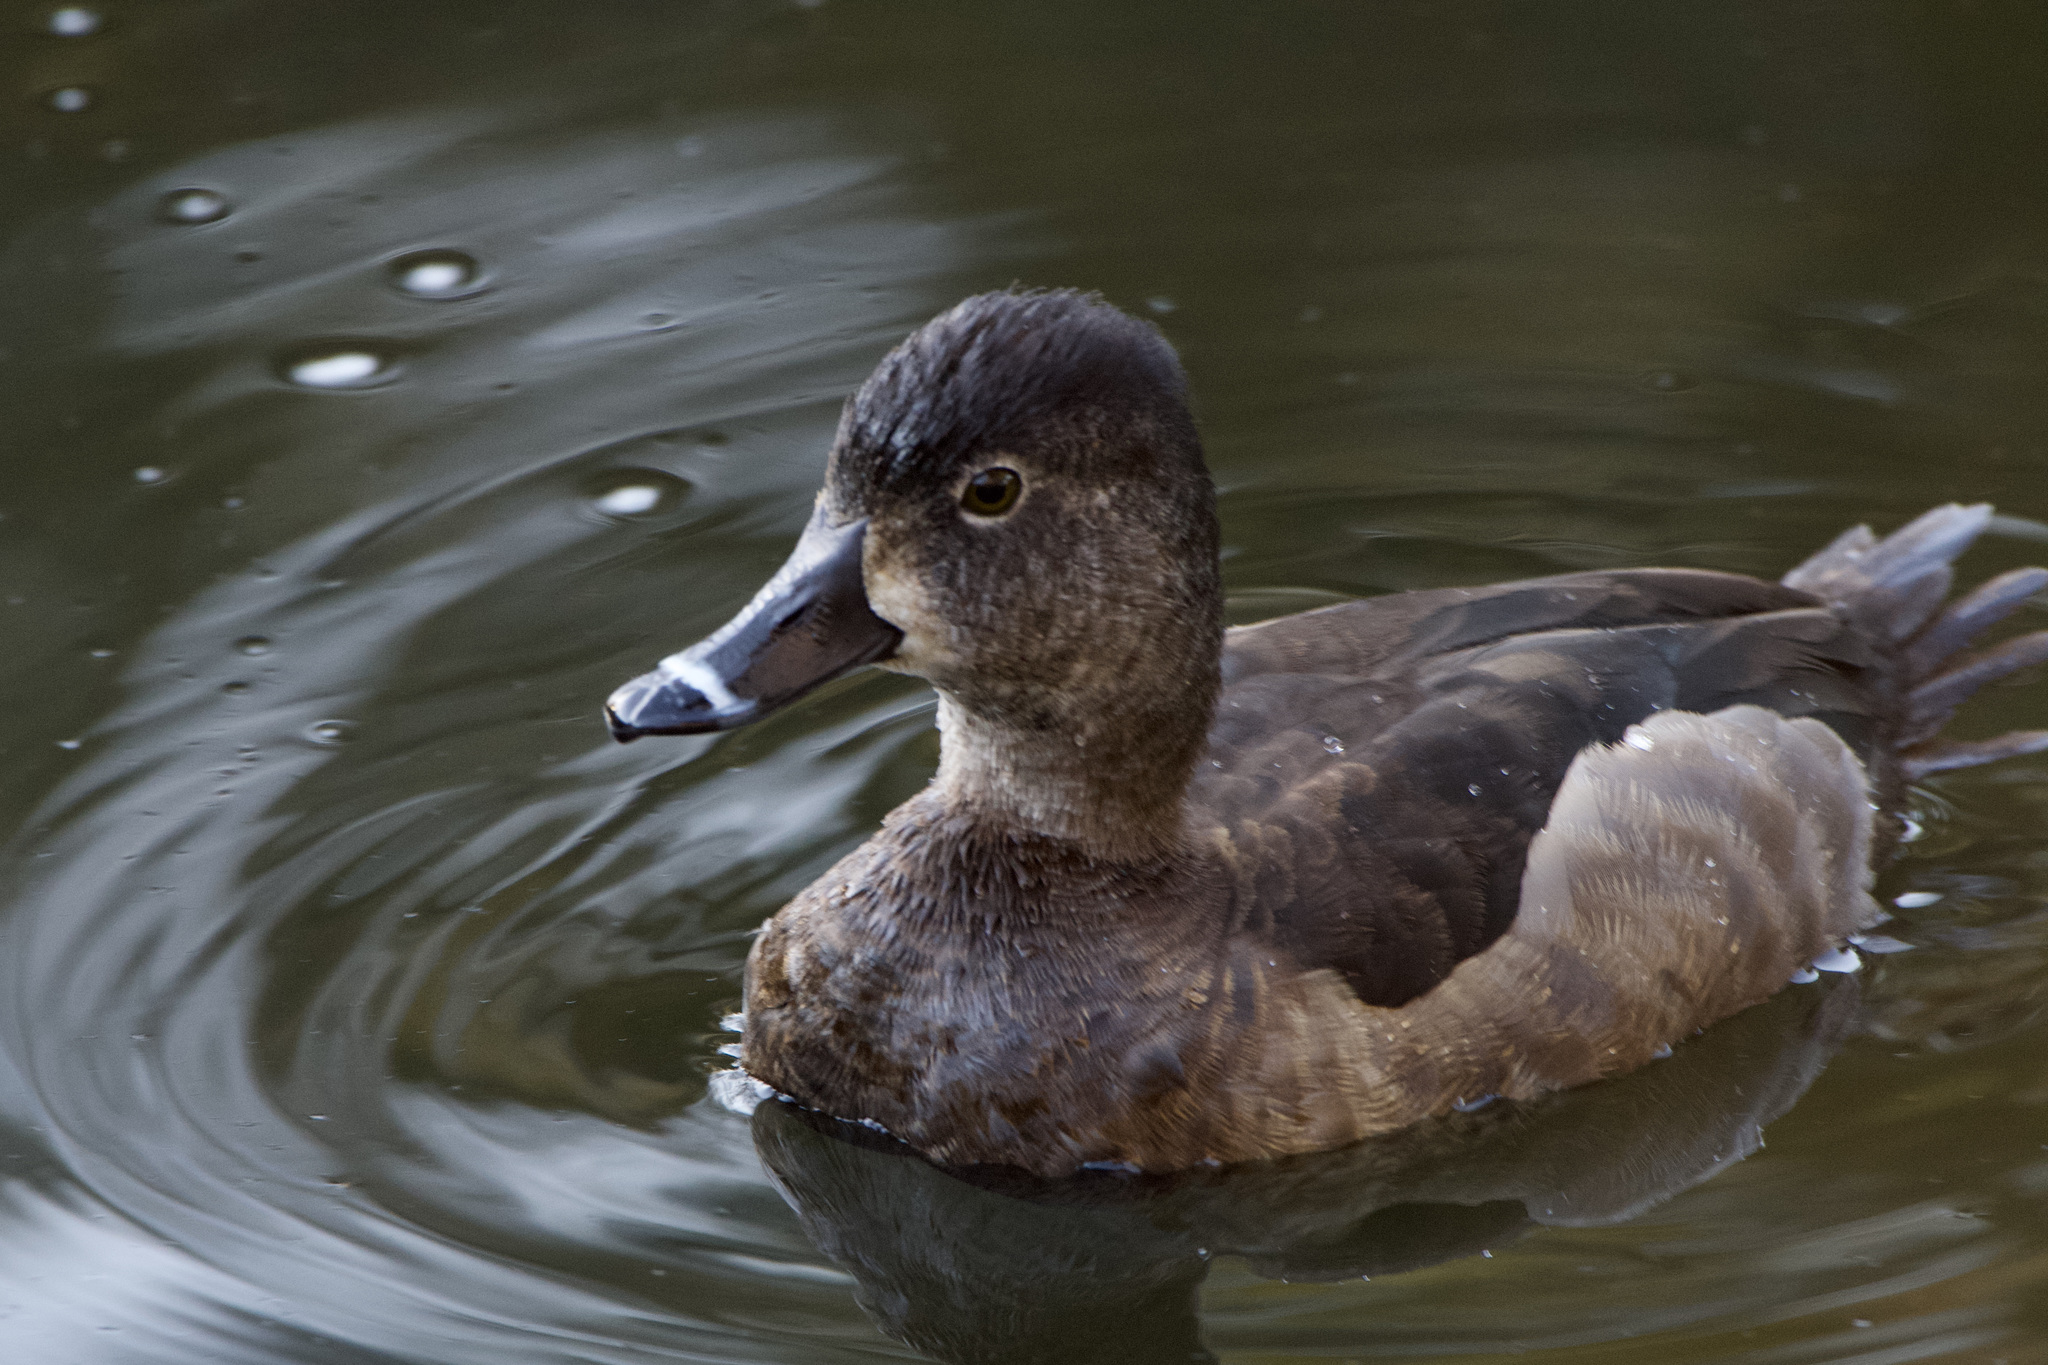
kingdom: Animalia
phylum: Chordata
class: Aves
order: Anseriformes
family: Anatidae
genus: Aythya
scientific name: Aythya collaris
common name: Ring-necked duck
